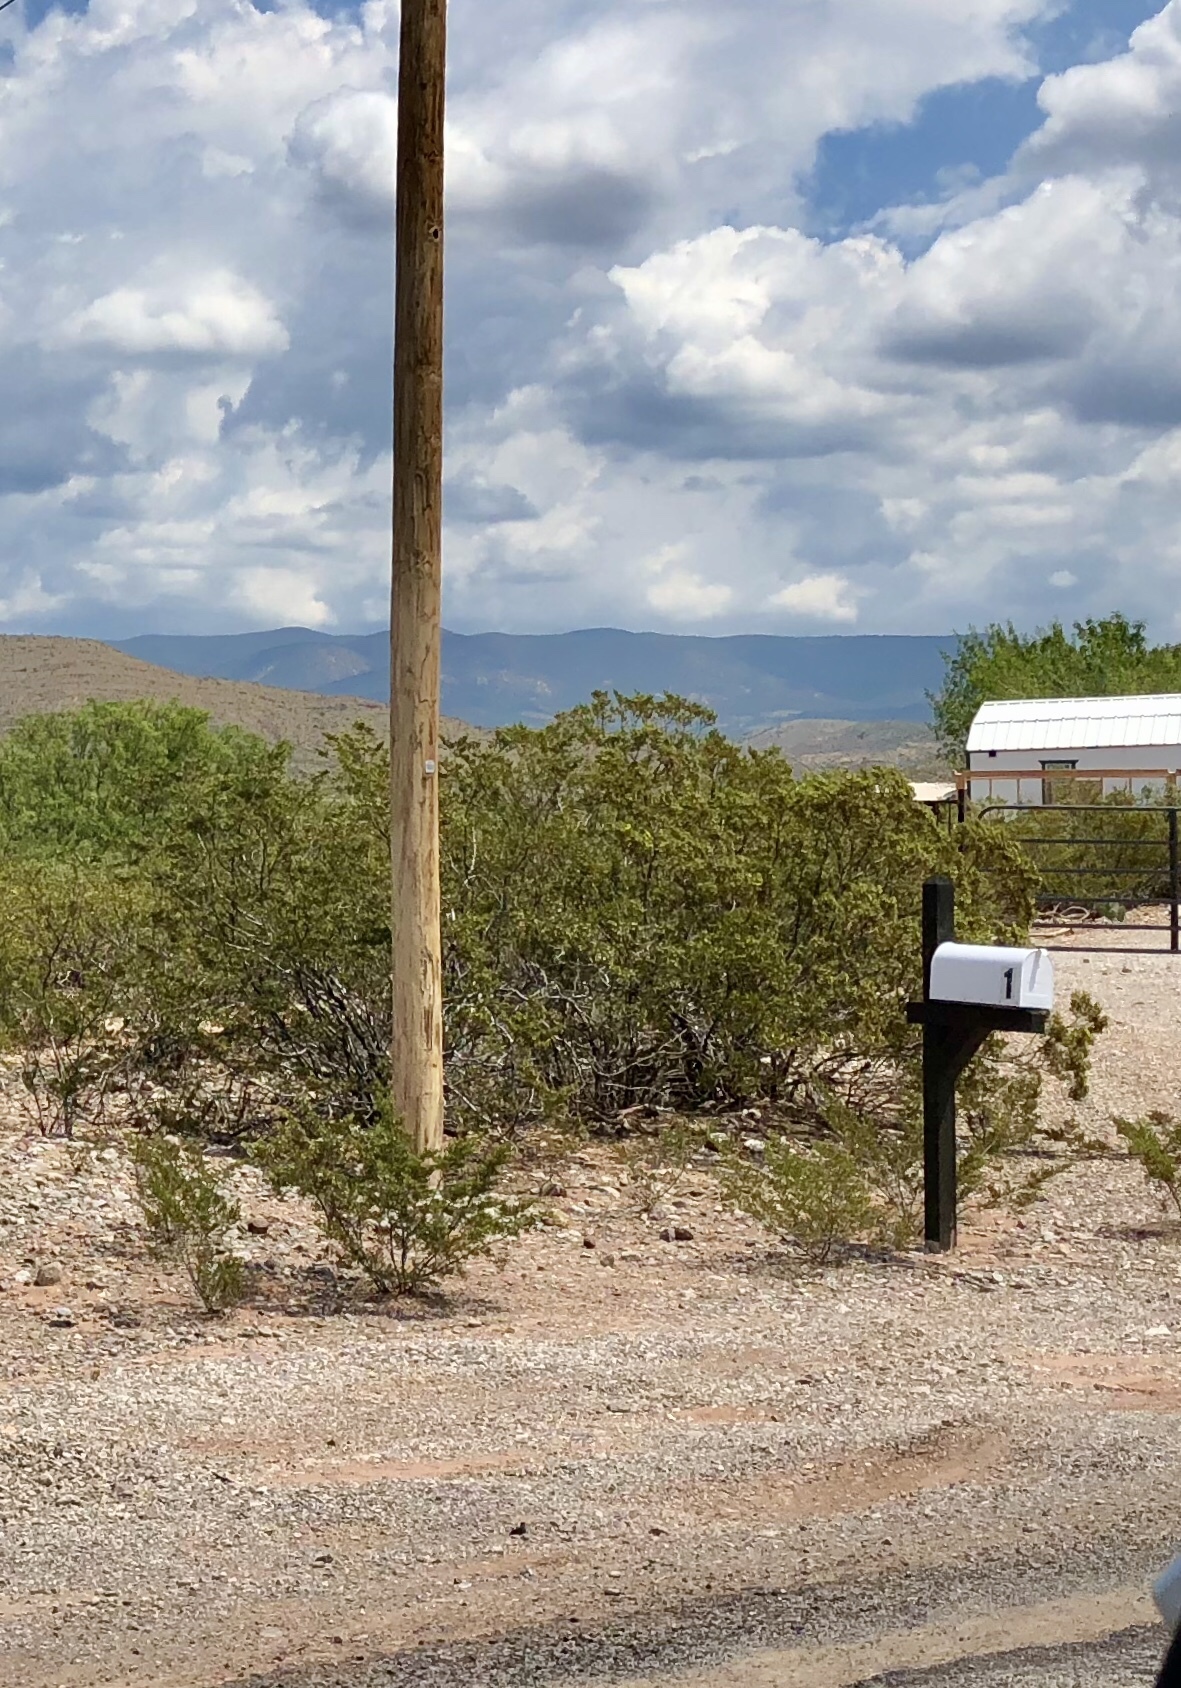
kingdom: Plantae
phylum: Tracheophyta
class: Magnoliopsida
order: Zygophyllales
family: Zygophyllaceae
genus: Larrea
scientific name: Larrea tridentata
